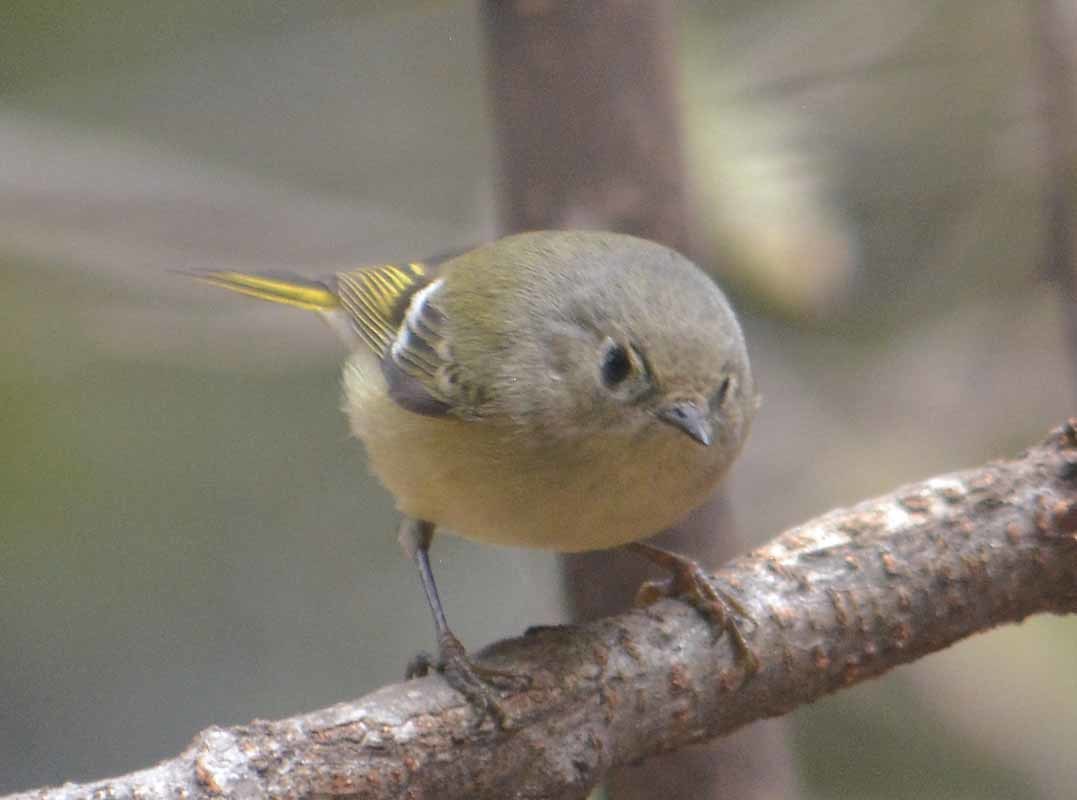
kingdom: Animalia
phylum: Chordata
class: Aves
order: Passeriformes
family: Regulidae
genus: Regulus
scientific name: Regulus calendula
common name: Ruby-crowned kinglet
